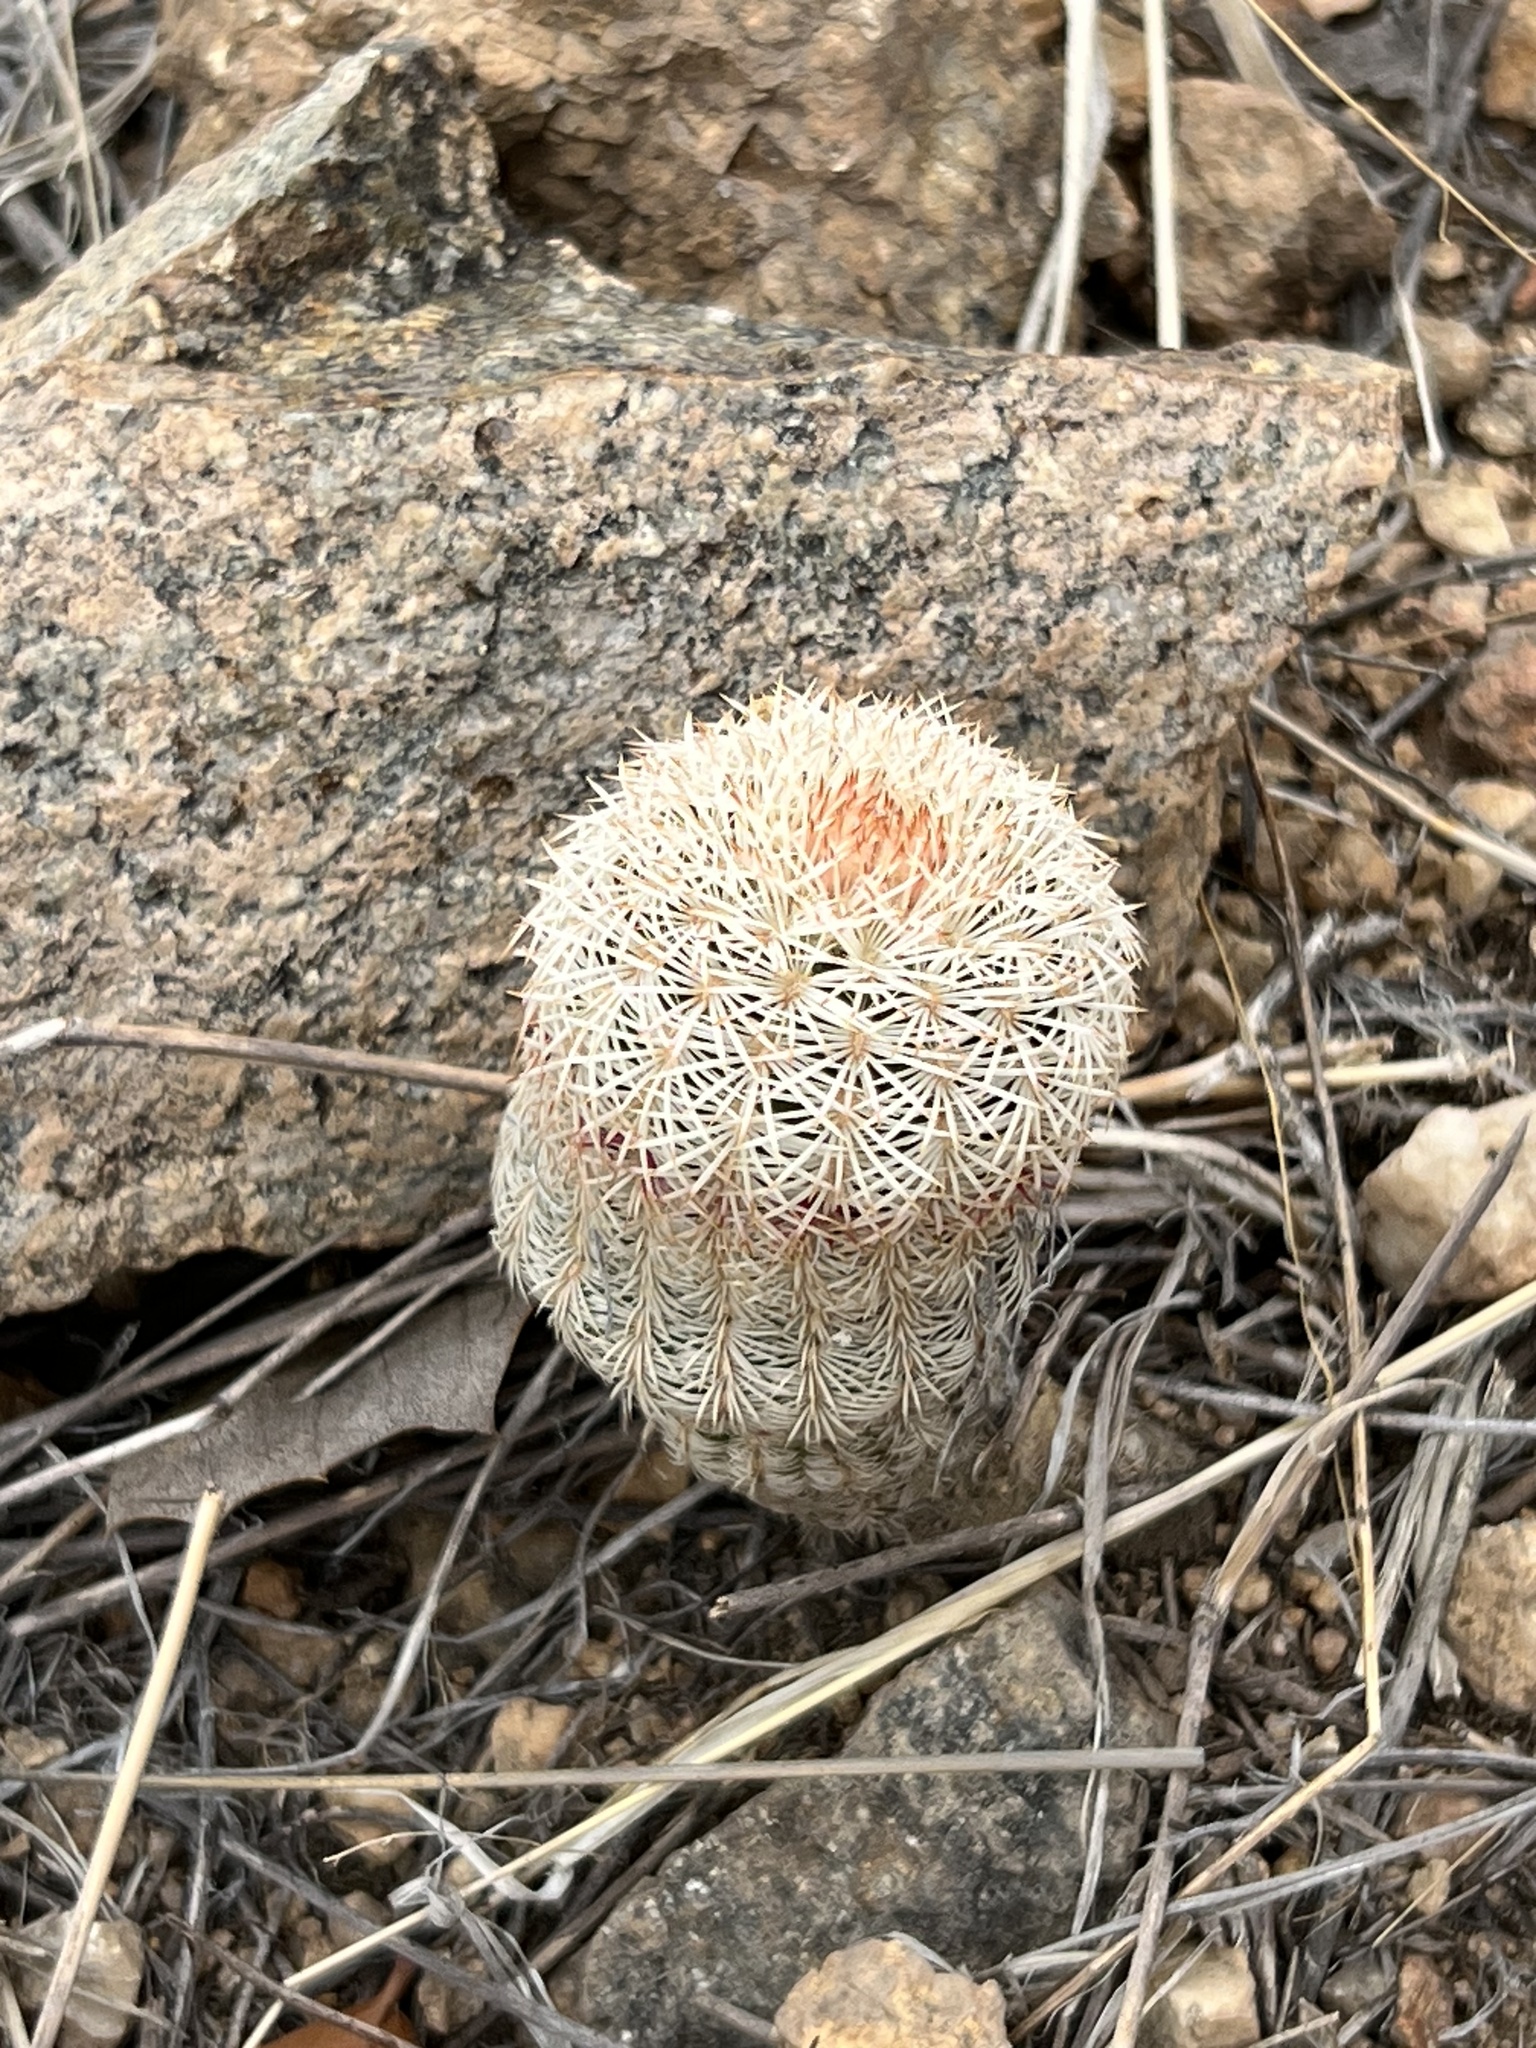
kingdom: Plantae
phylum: Tracheophyta
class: Magnoliopsida
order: Caryophyllales
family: Cactaceae
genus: Echinocereus
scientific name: Echinocereus rigidissimus
